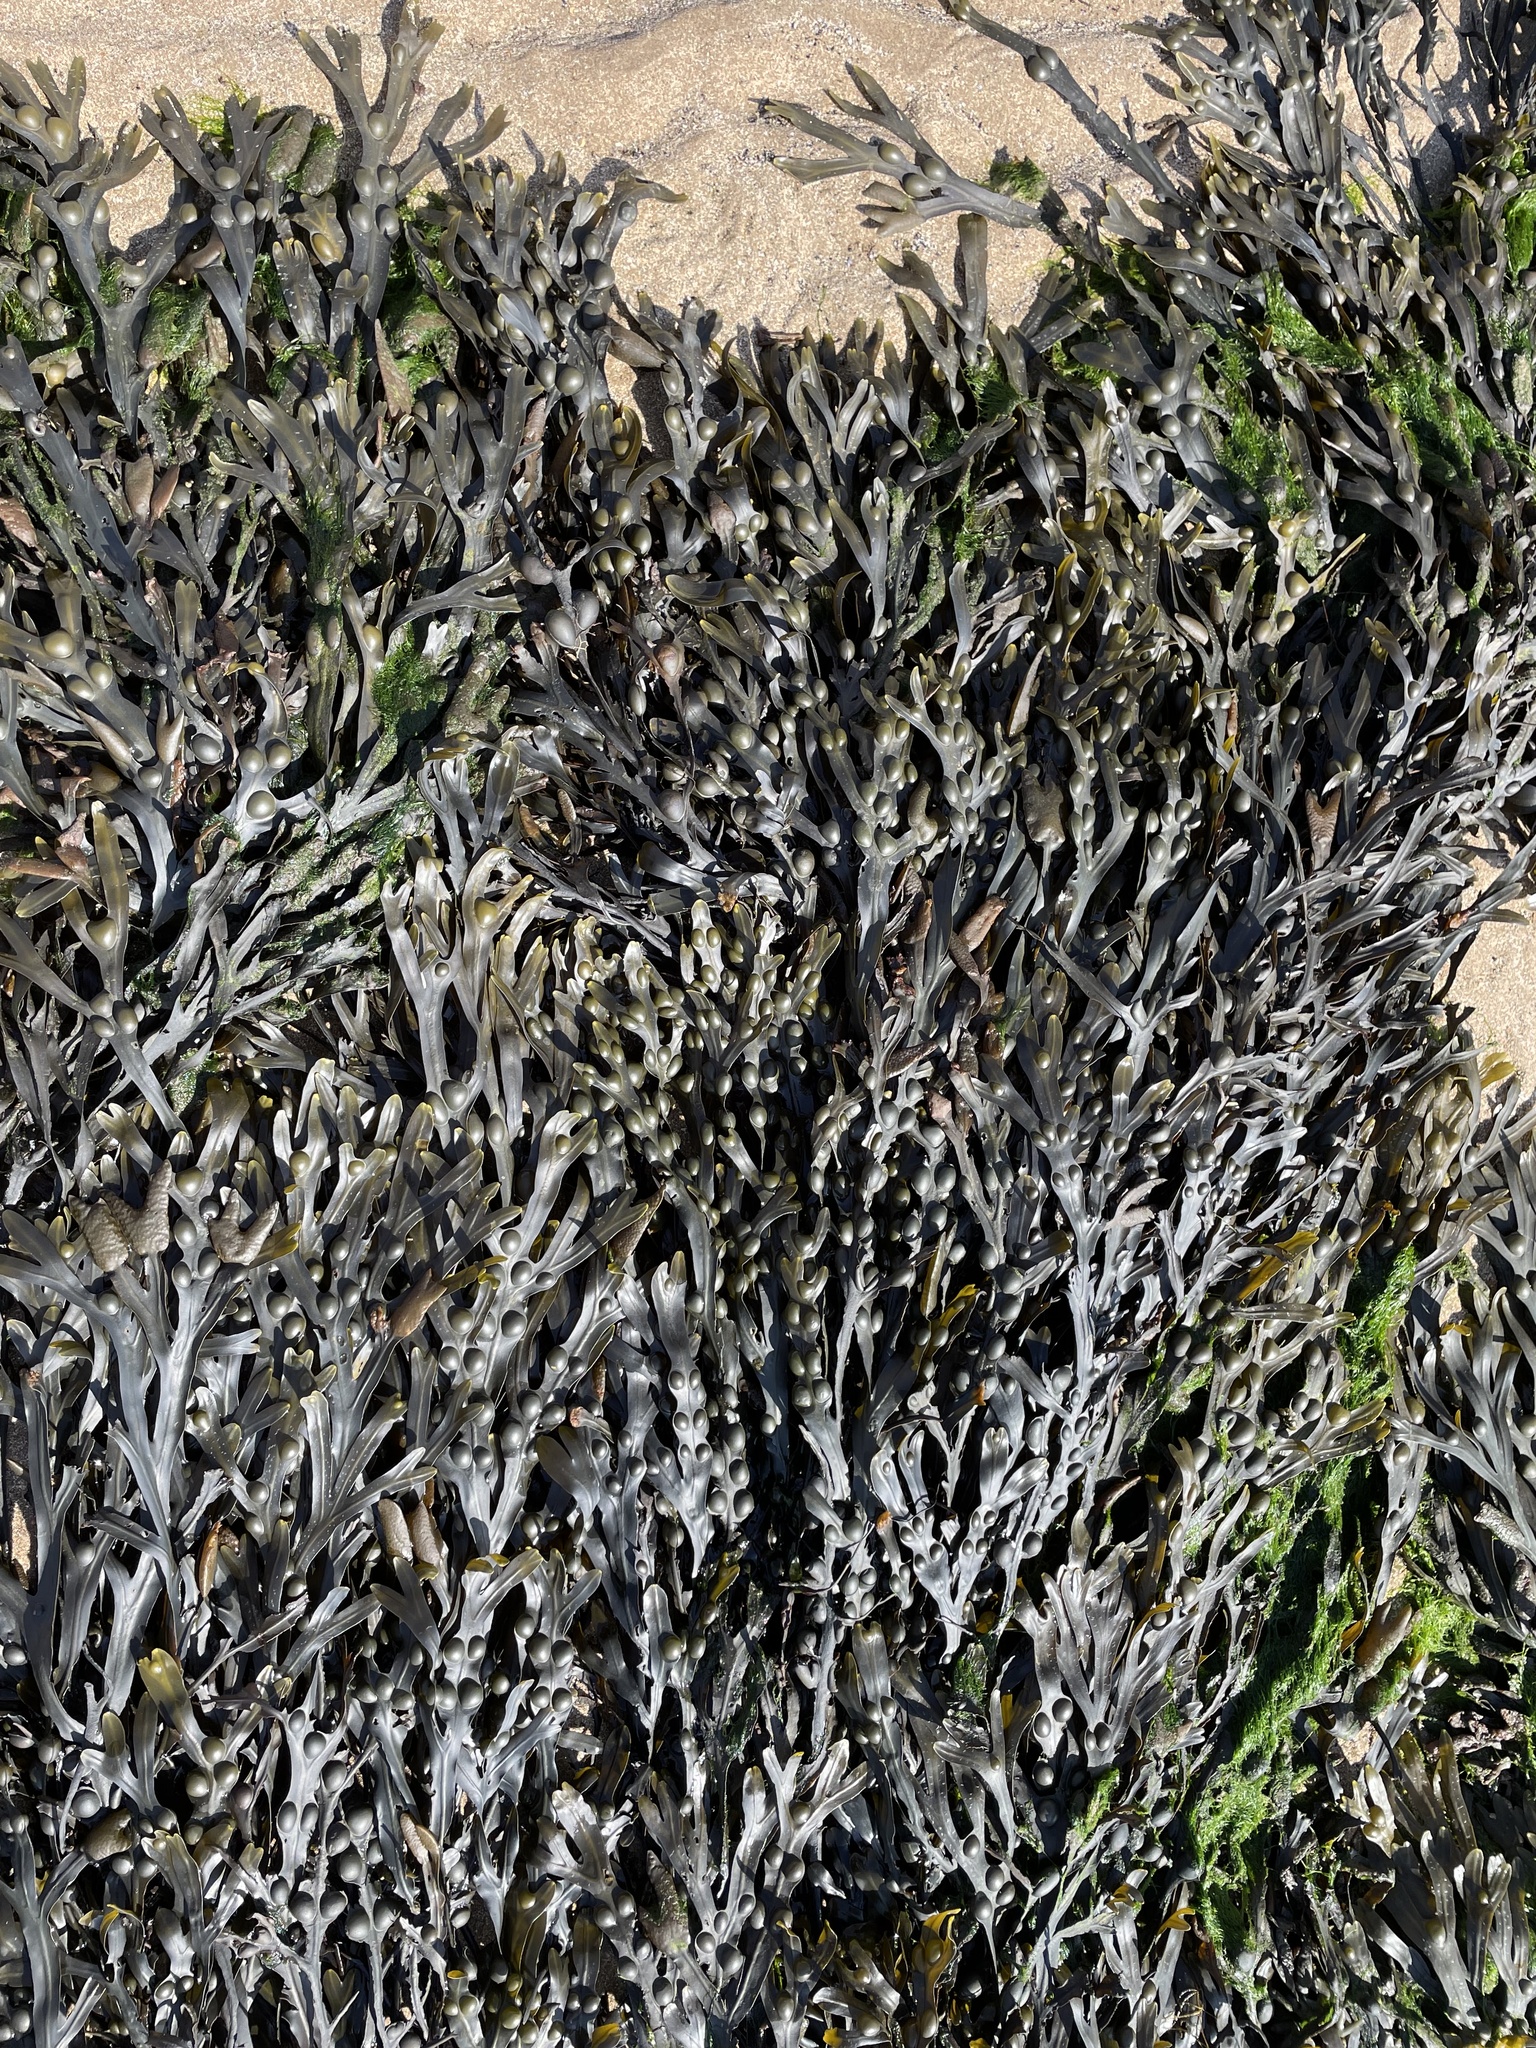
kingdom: Chromista
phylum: Ochrophyta
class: Phaeophyceae
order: Fucales
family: Fucaceae
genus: Fucus
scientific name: Fucus vesiculosus
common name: Bladder wrack
